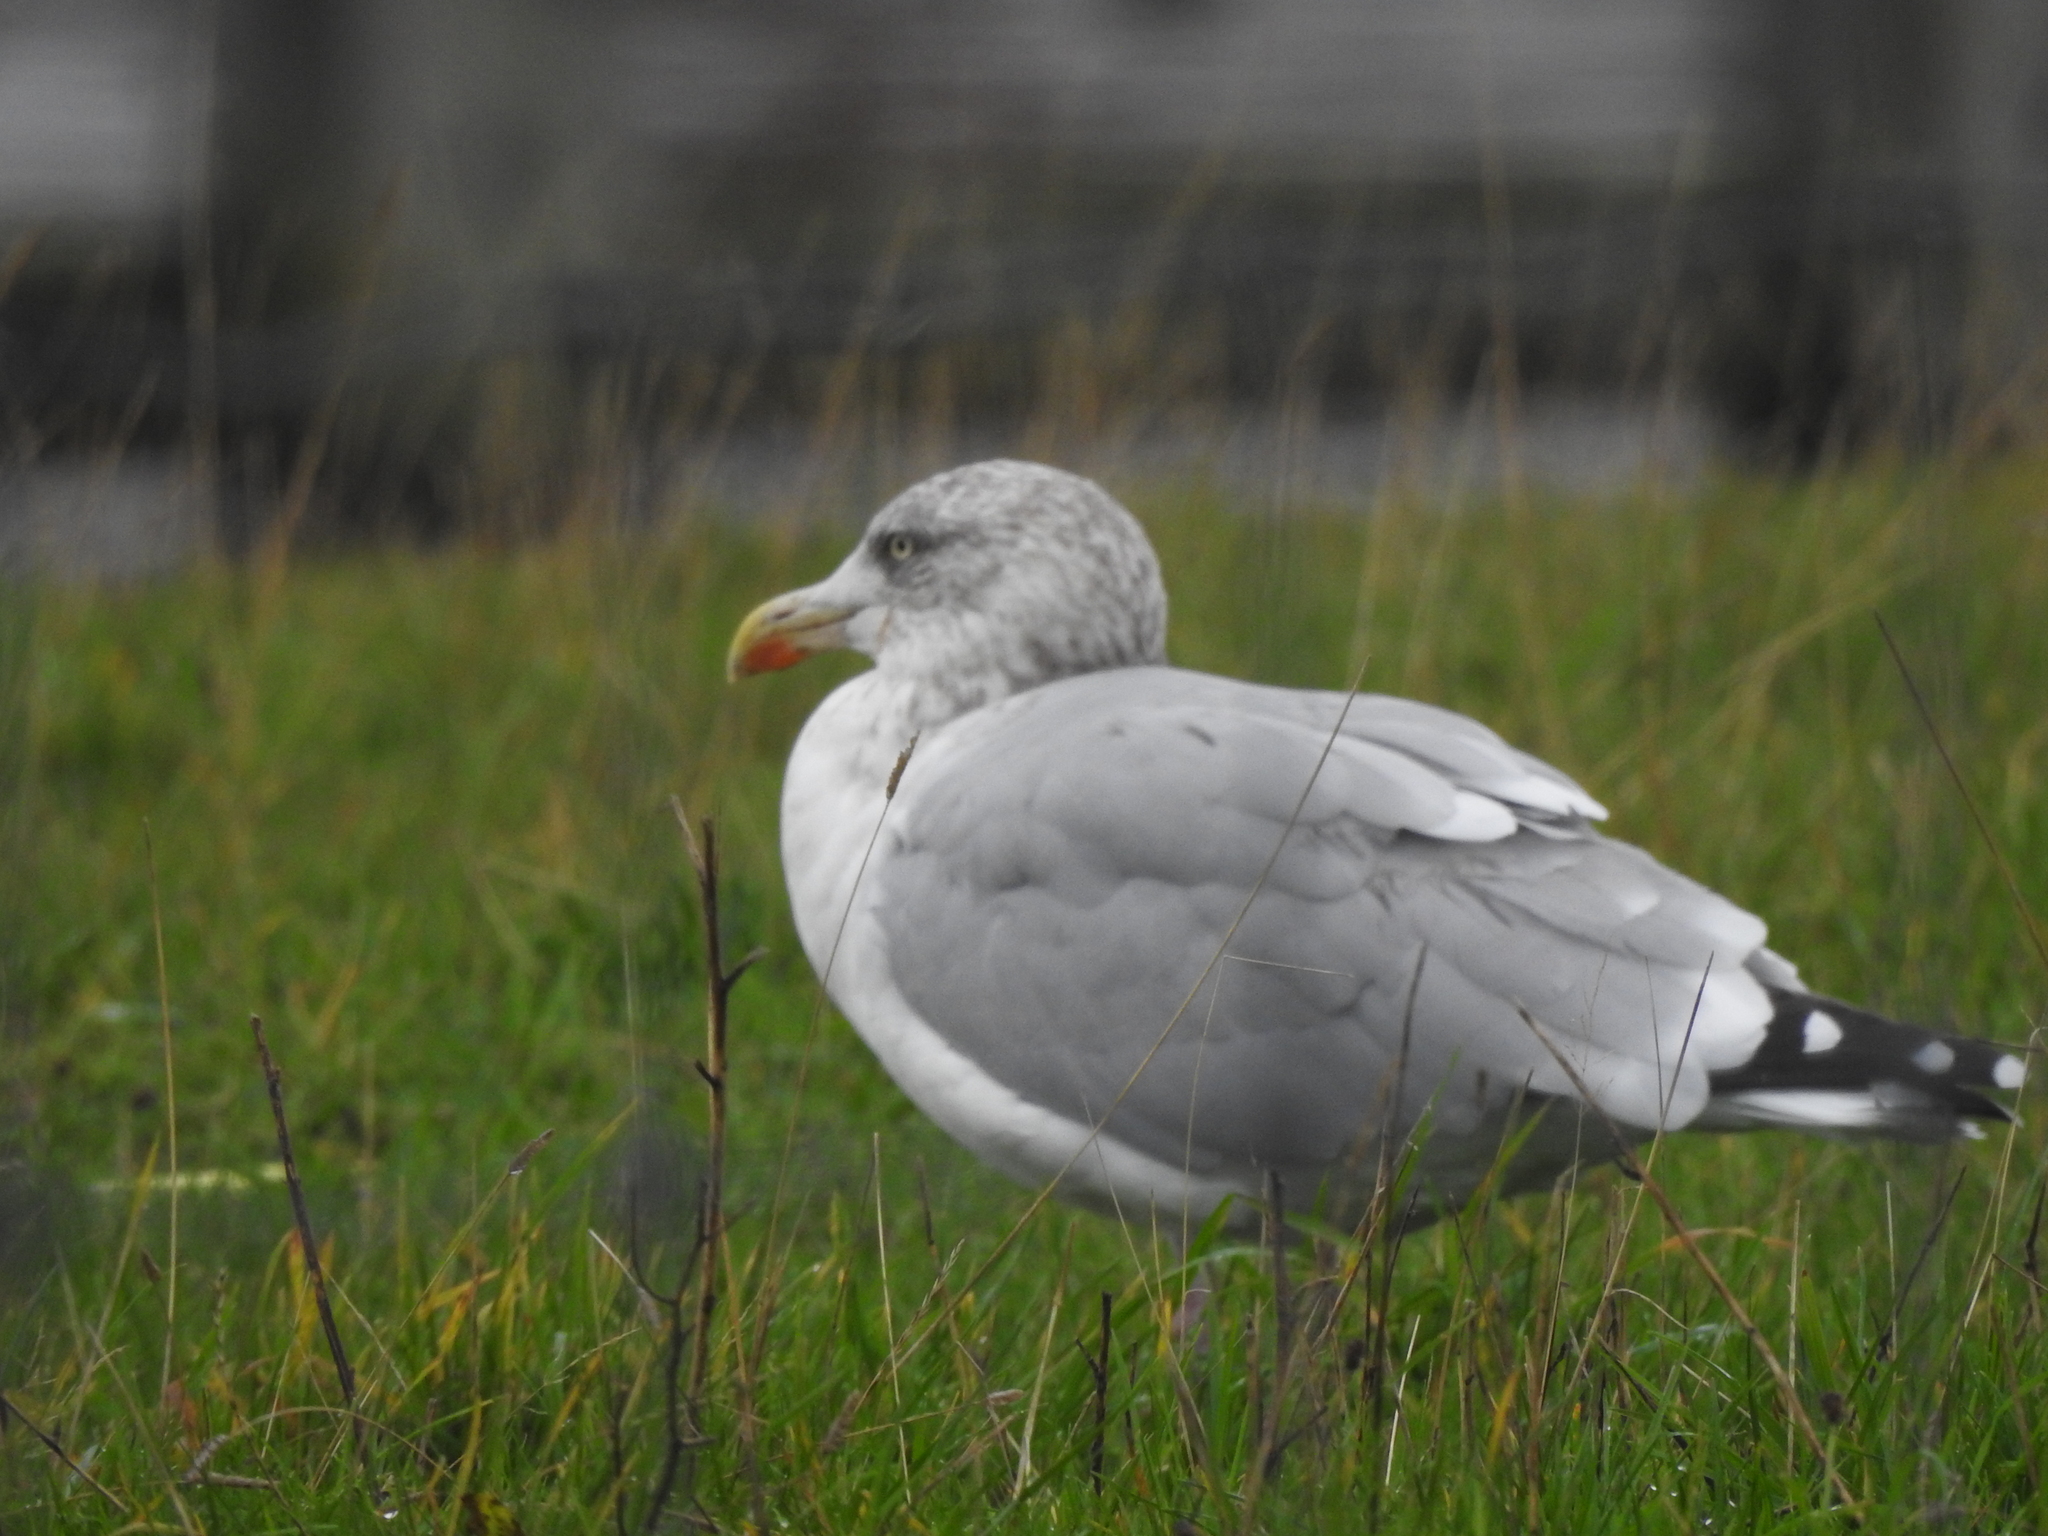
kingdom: Animalia
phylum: Chordata
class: Aves
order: Charadriiformes
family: Laridae
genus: Larus
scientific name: Larus argentatus
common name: Herring gull
